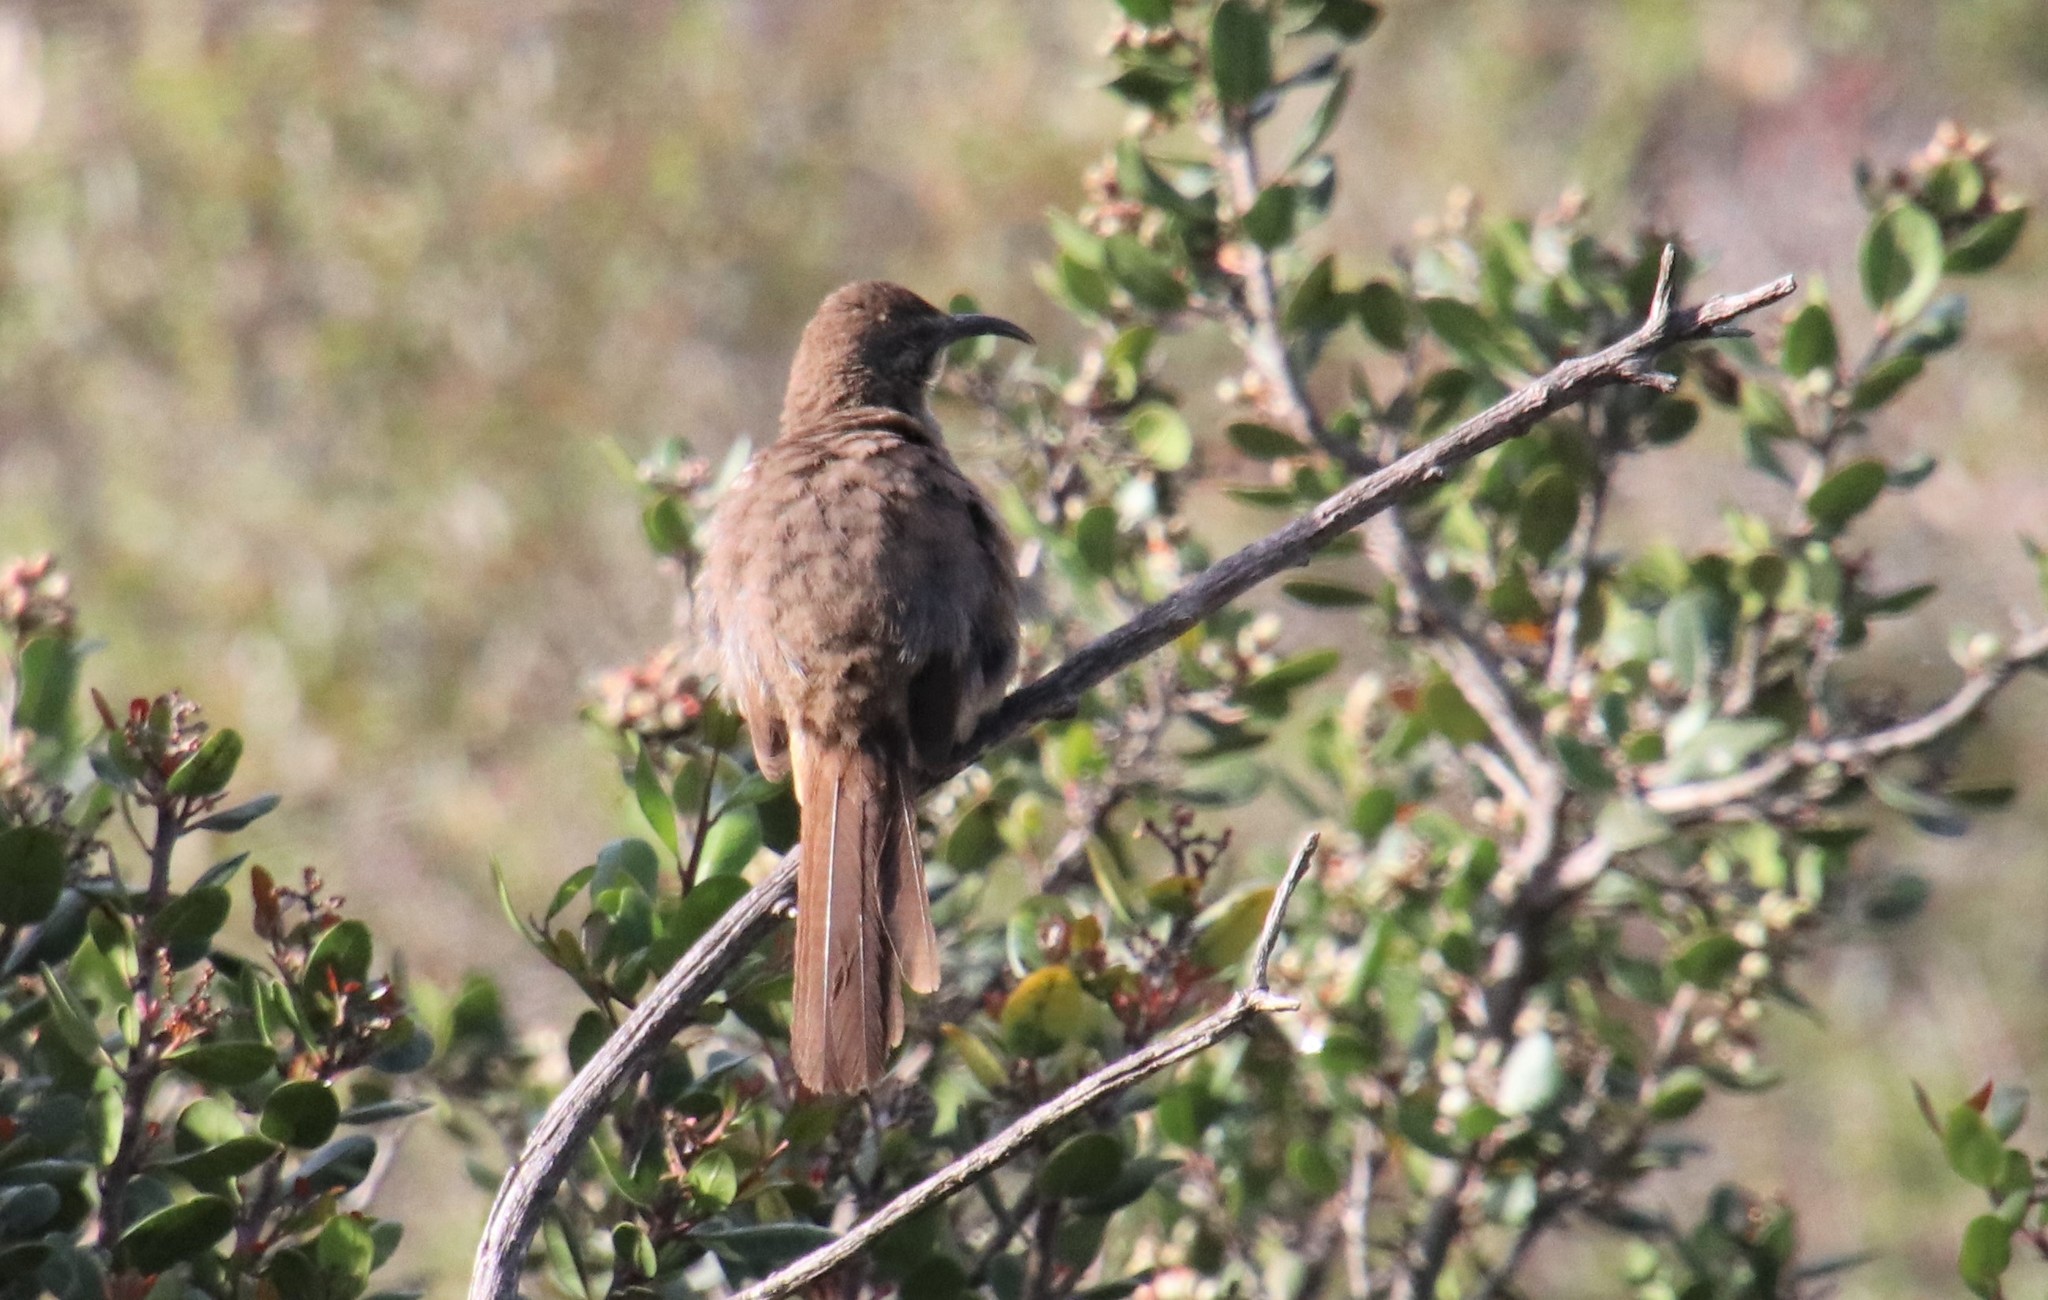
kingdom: Animalia
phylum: Chordata
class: Aves
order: Passeriformes
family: Mimidae
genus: Toxostoma
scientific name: Toxostoma redivivum
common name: California thrasher
